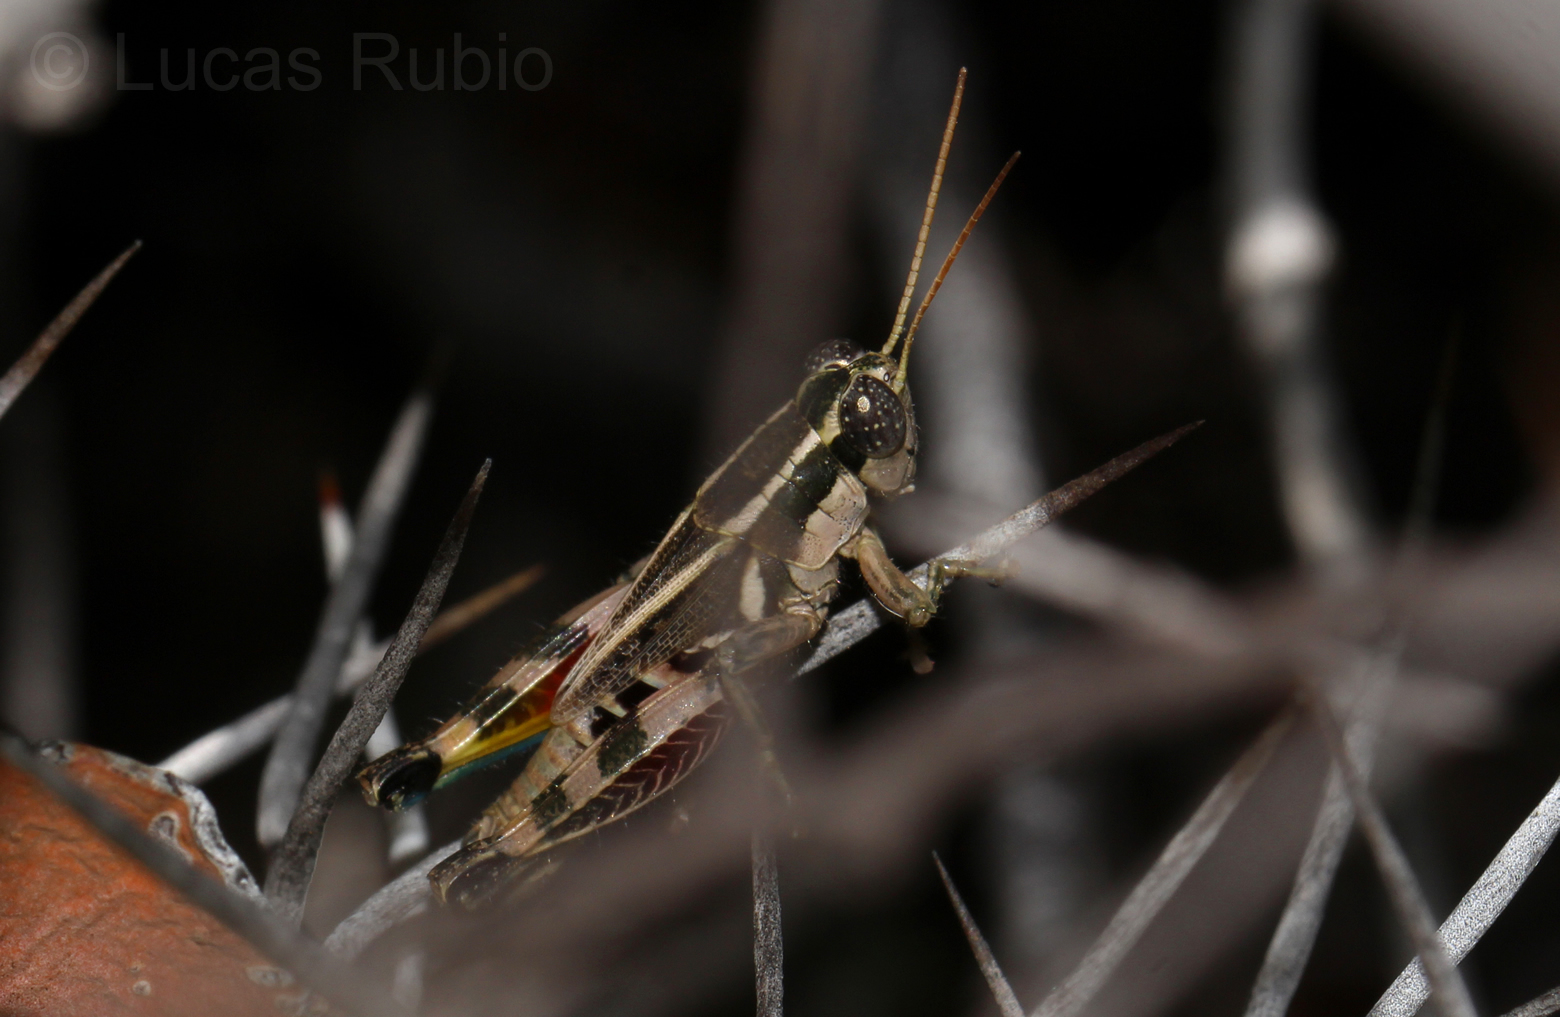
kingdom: Animalia
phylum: Arthropoda
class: Insecta
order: Orthoptera
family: Acrididae
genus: Dichroplus
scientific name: Dichroplus vittatus
